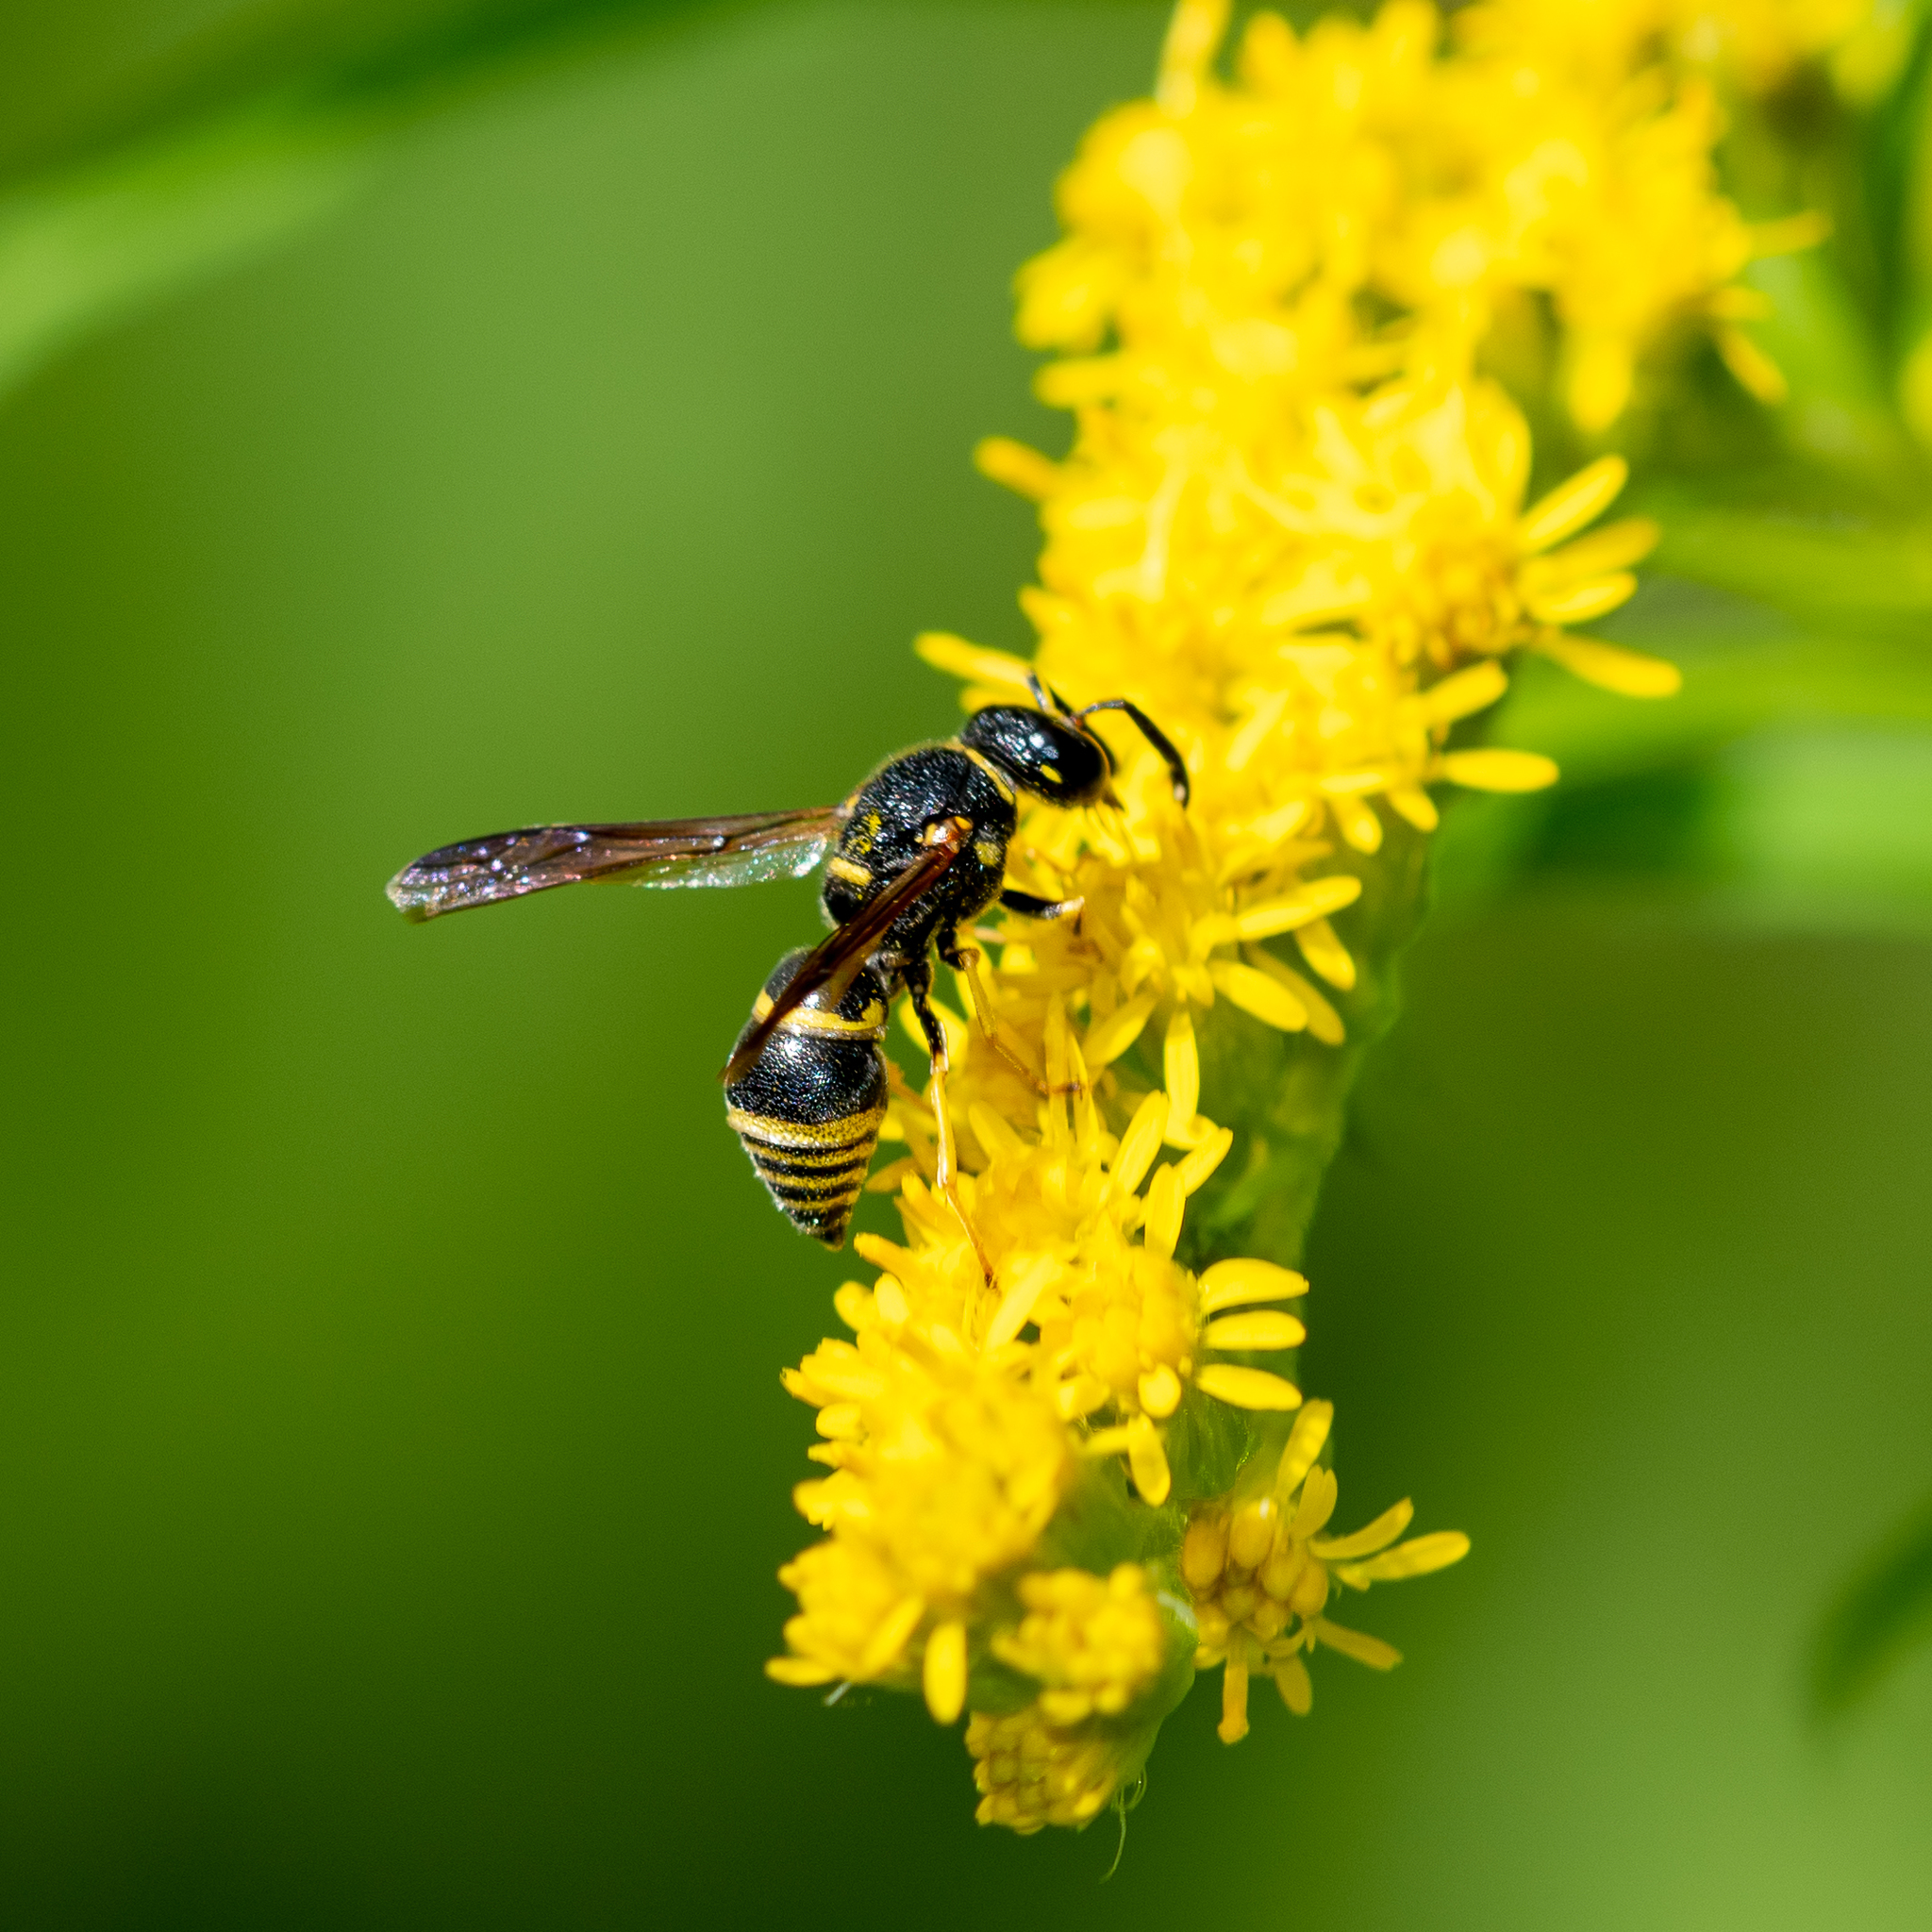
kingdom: Animalia
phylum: Arthropoda
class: Insecta
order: Hymenoptera
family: Eumenidae
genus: Euodynerus
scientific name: Euodynerus foraminatus
